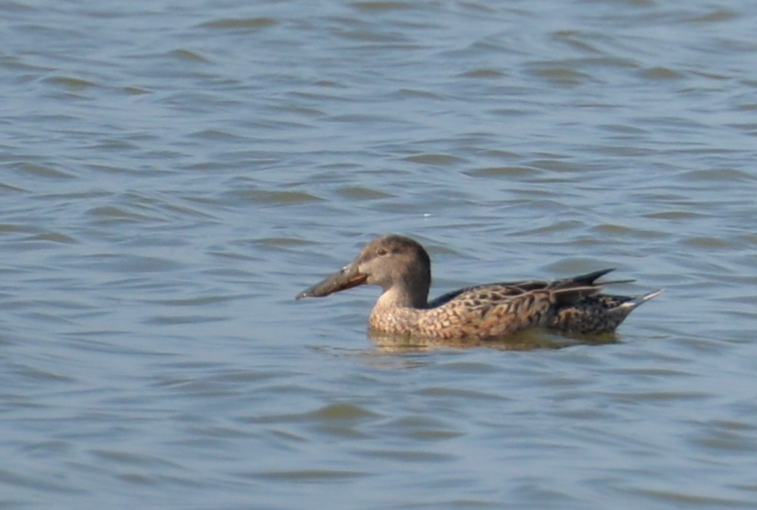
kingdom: Animalia
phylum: Chordata
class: Aves
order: Anseriformes
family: Anatidae
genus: Spatula
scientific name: Spatula clypeata
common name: Northern shoveler
